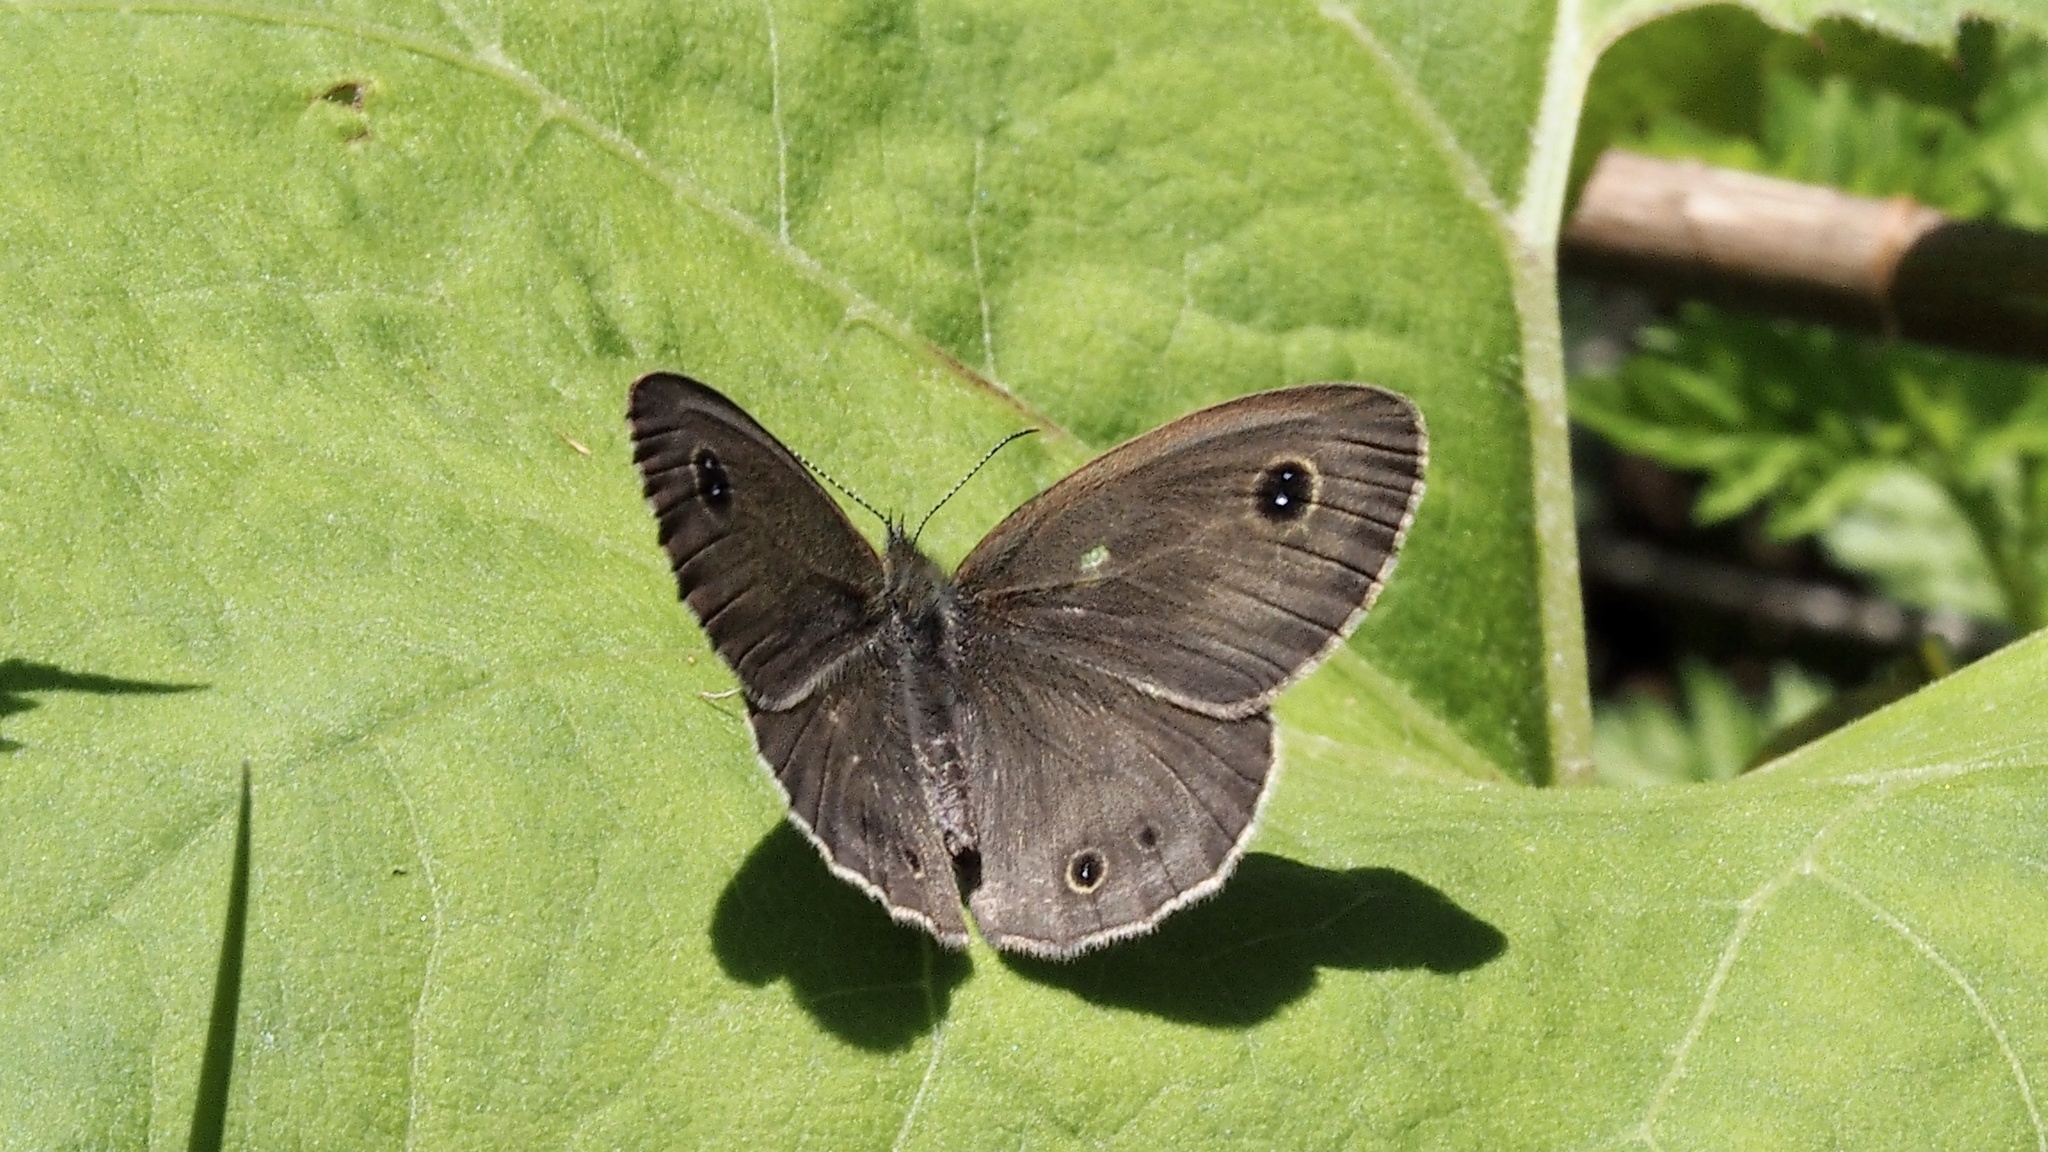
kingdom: Animalia
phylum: Arthropoda
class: Insecta
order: Lepidoptera
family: Nymphalidae
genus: Ypthima
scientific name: Ypthima argus
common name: Common fivering
